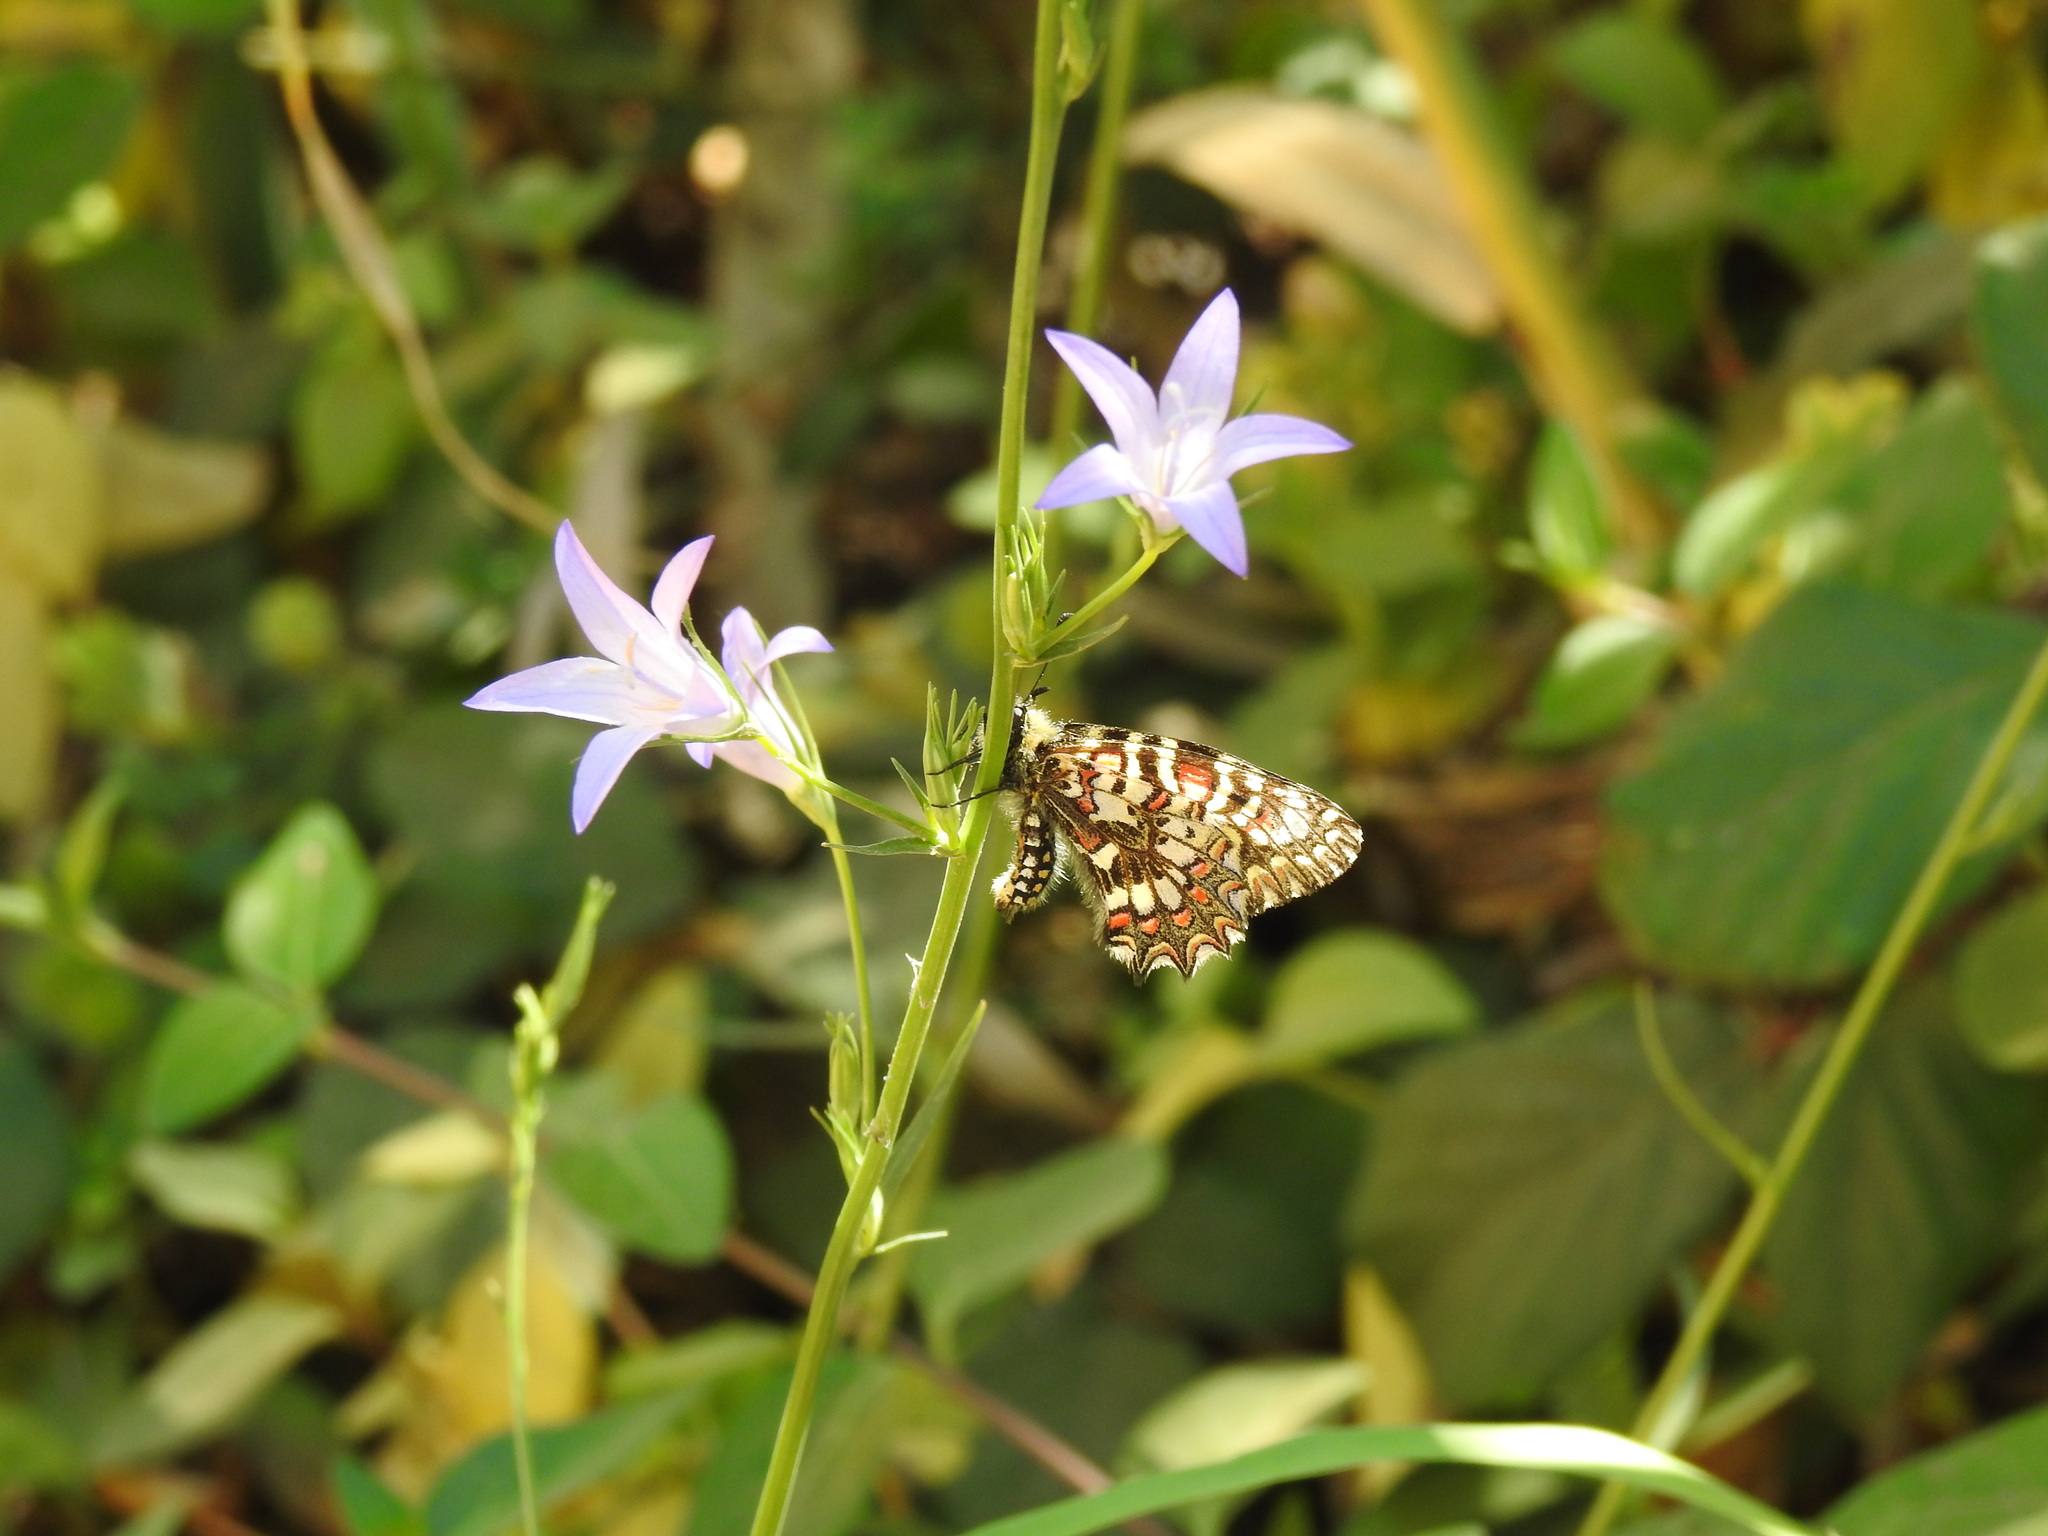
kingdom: Animalia
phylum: Arthropoda
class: Insecta
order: Lepidoptera
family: Papilionidae
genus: Zerynthia
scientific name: Zerynthia rumina
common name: Spanish festoon
